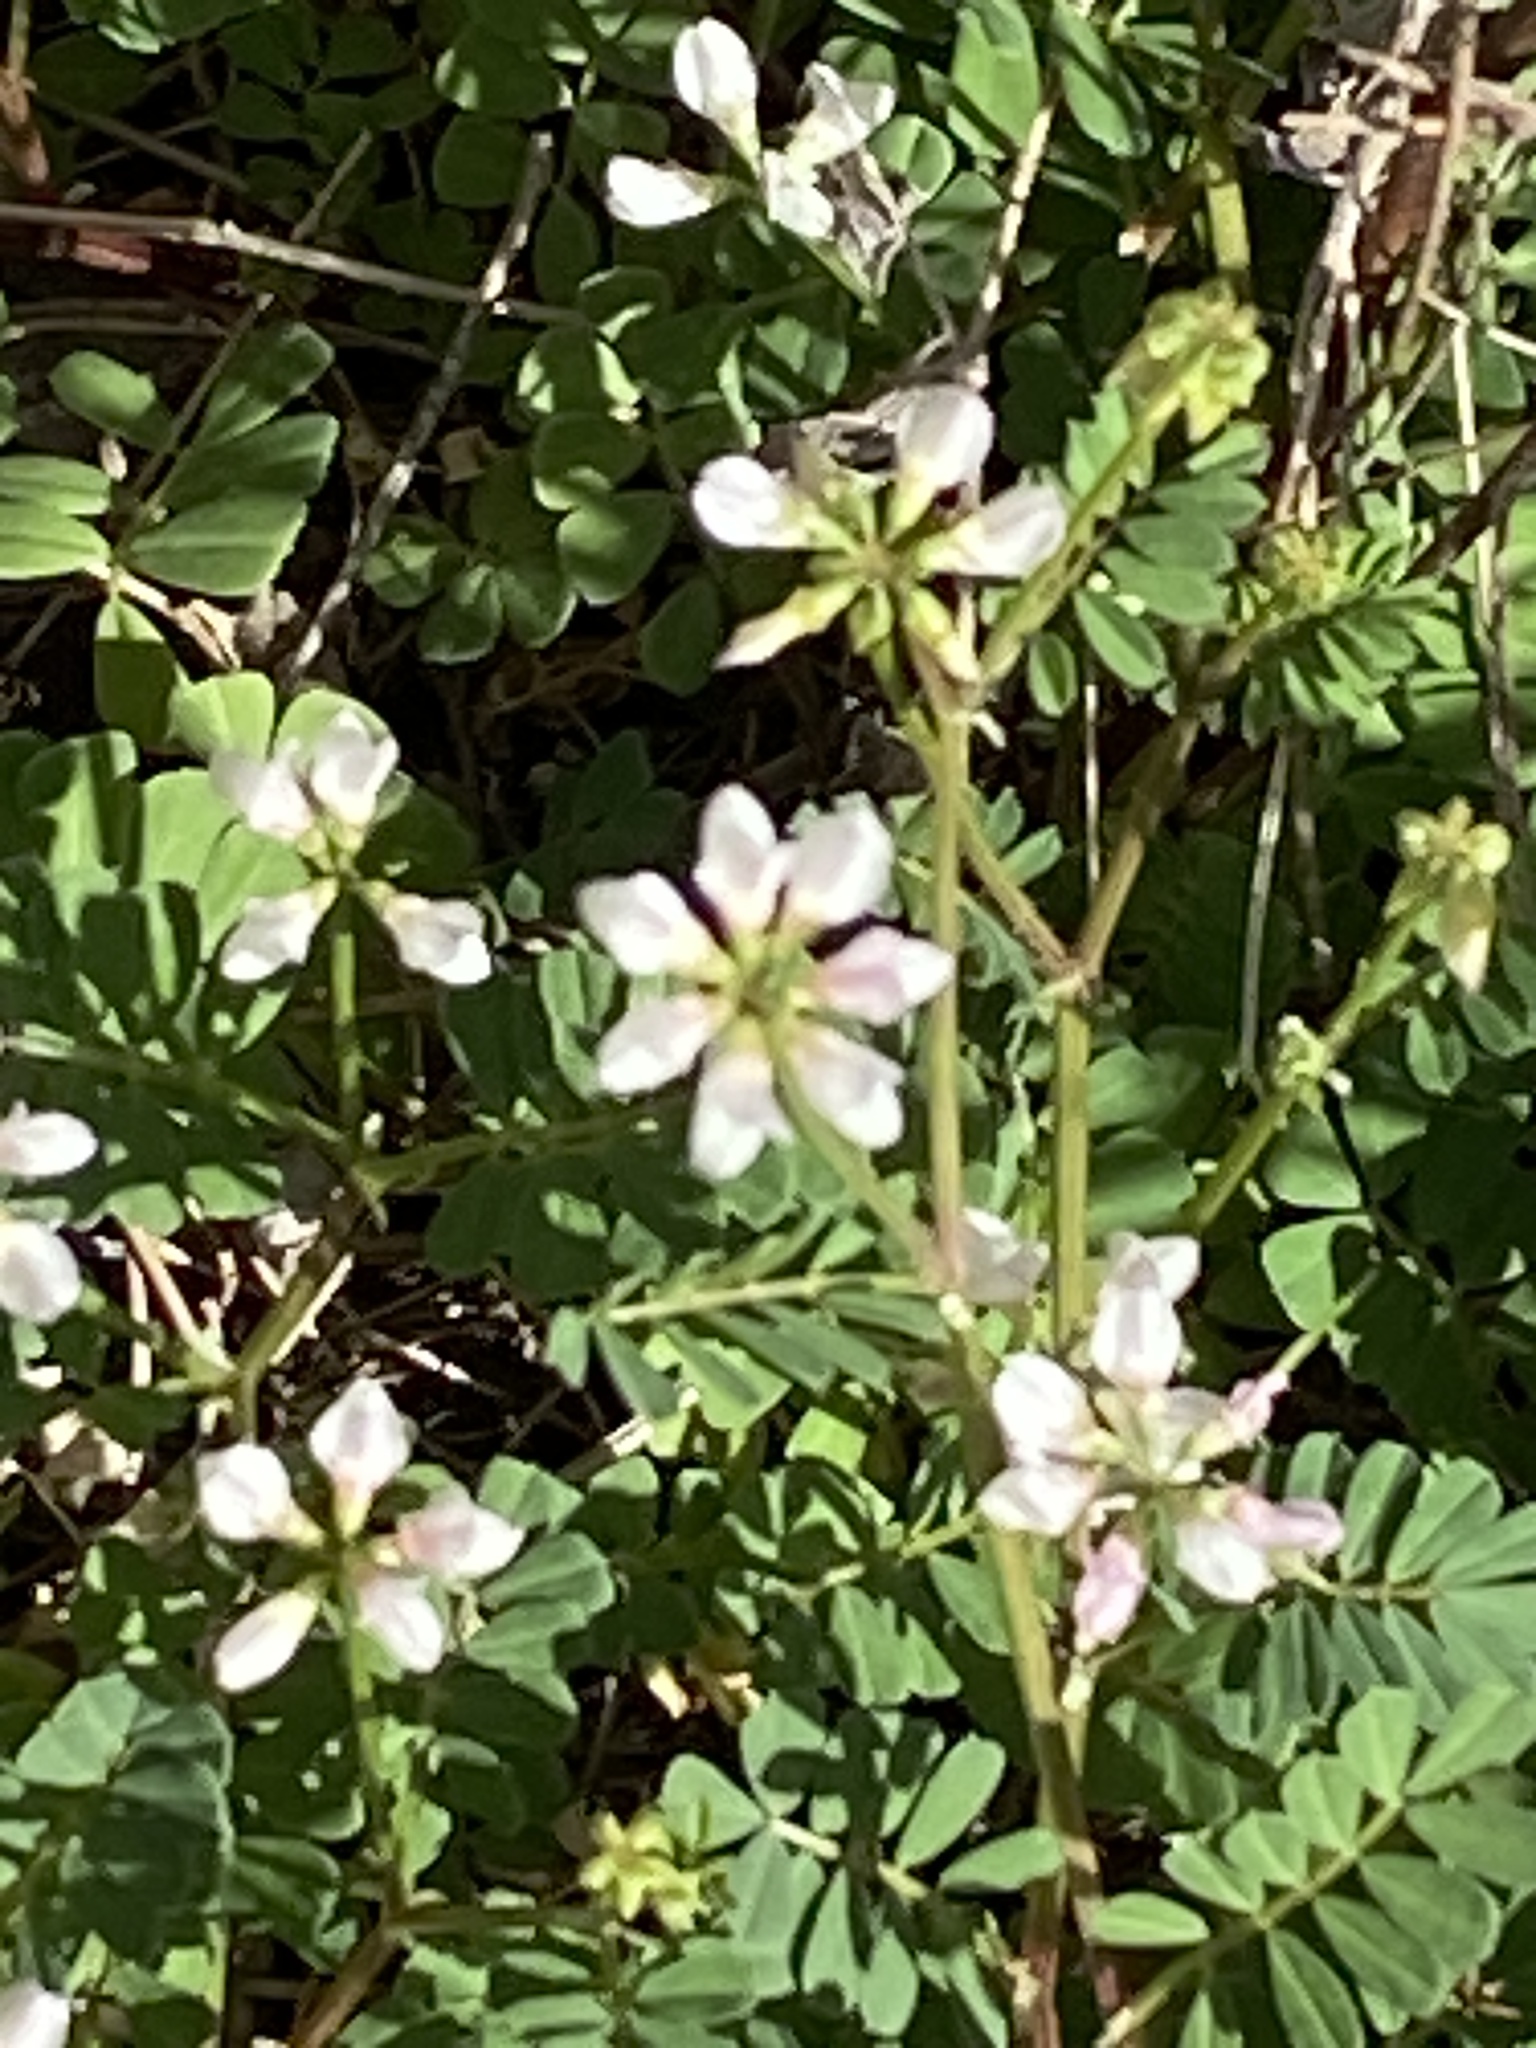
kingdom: Plantae
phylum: Tracheophyta
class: Magnoliopsida
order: Fabales
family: Fabaceae
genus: Coronilla
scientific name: Coronilla cretica
